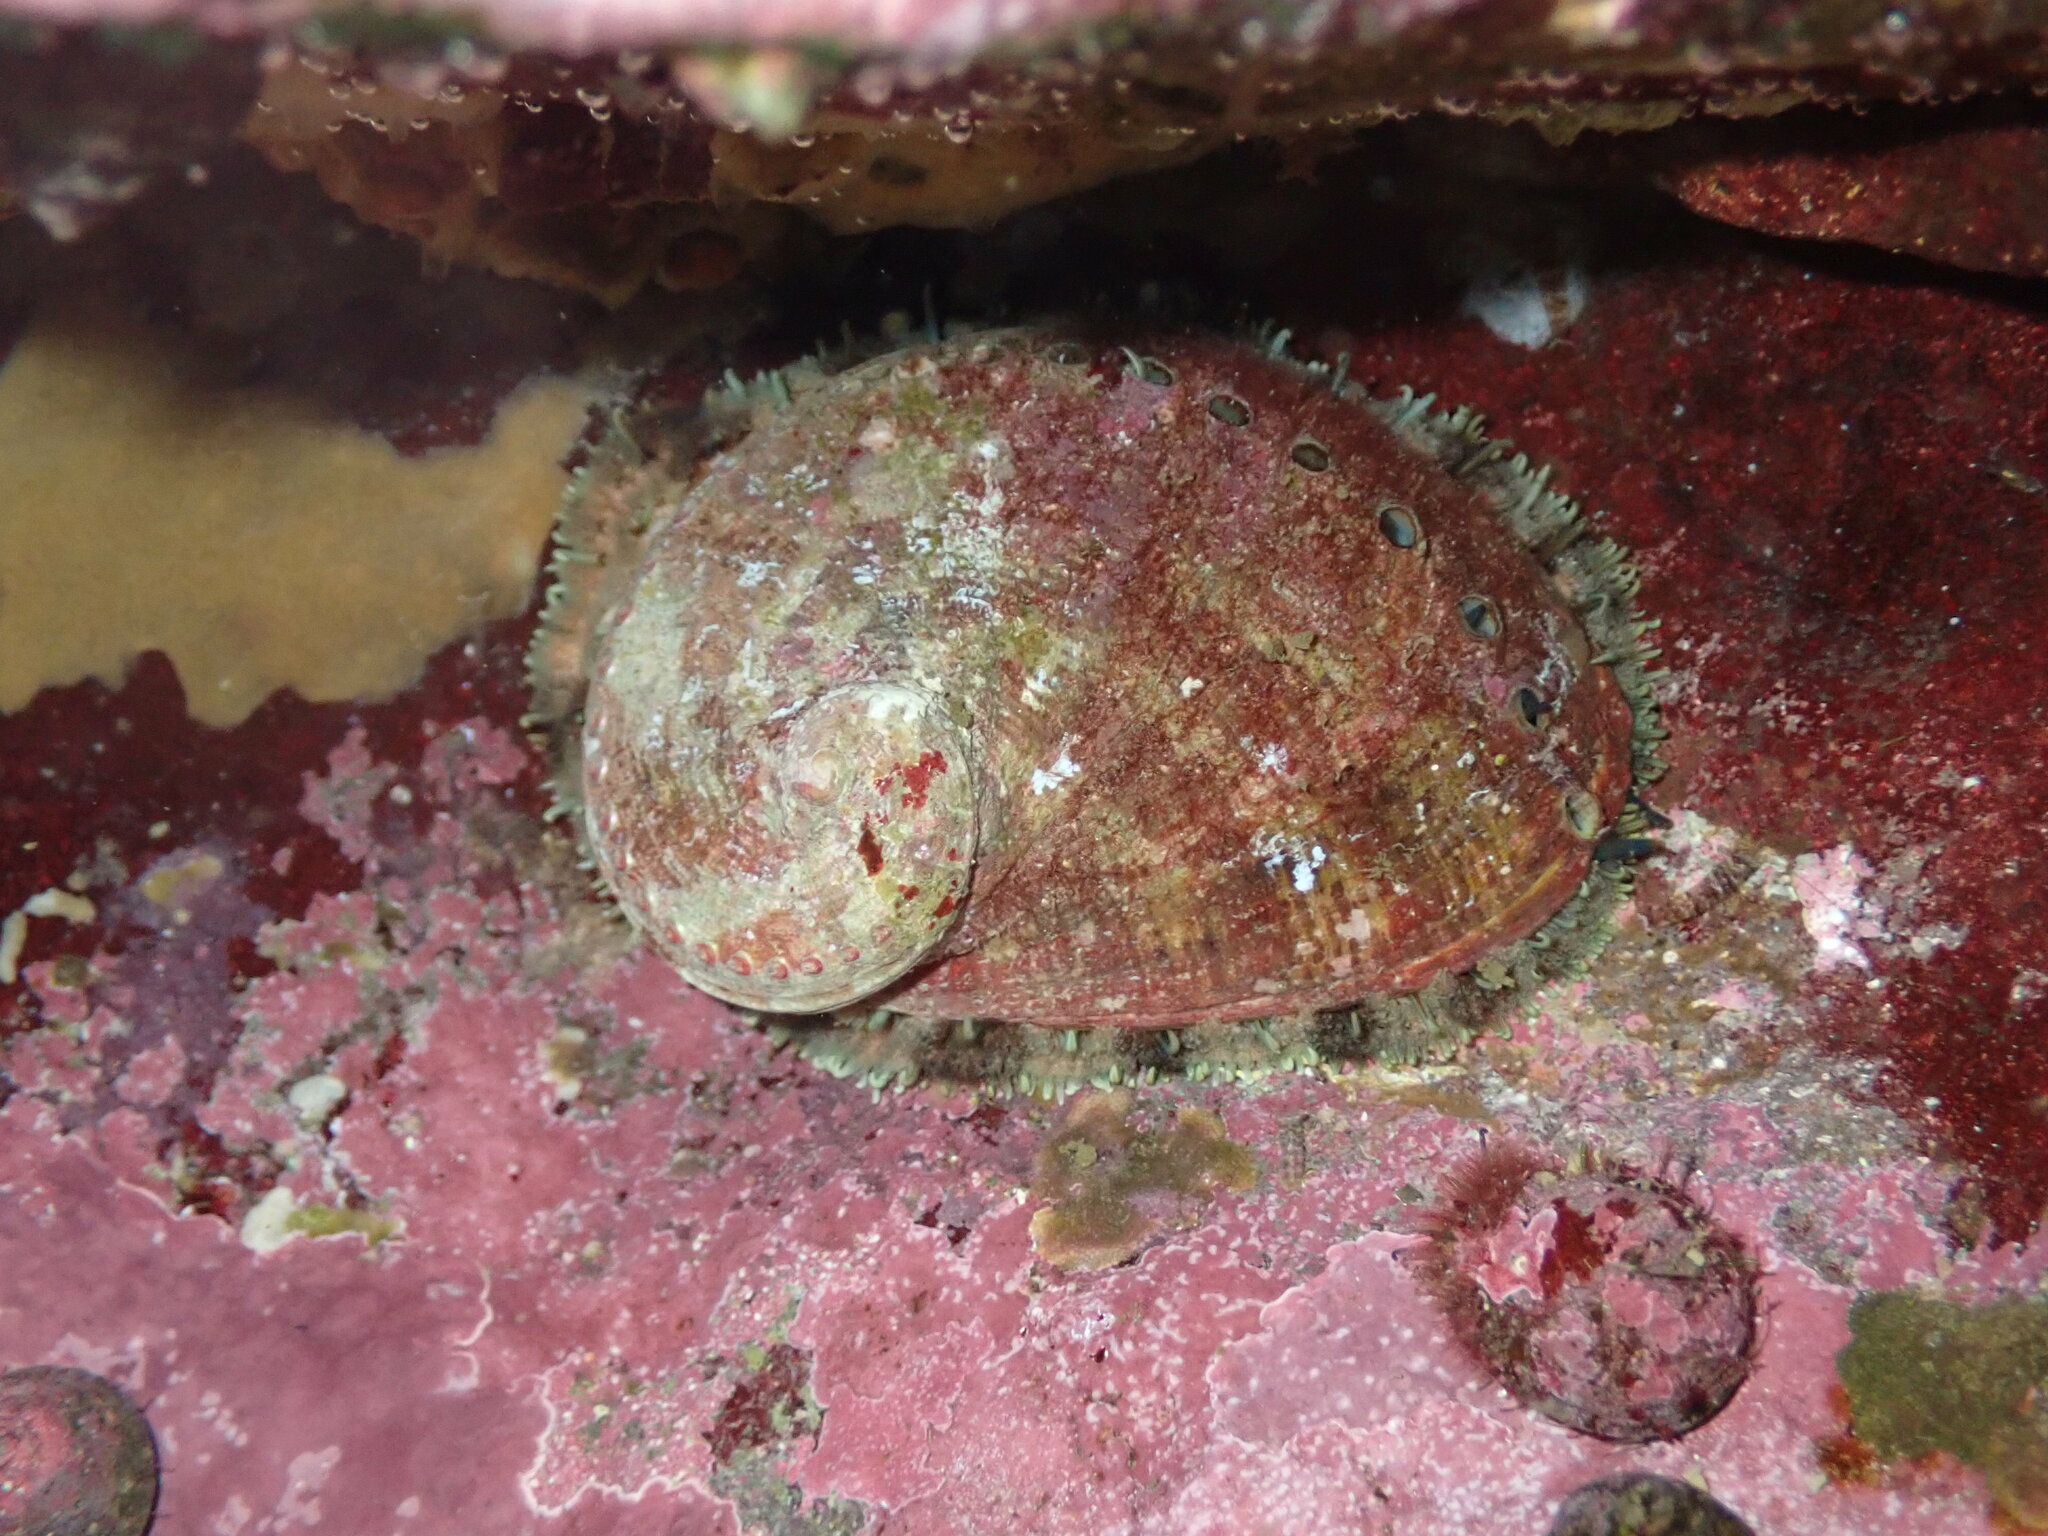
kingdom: Animalia
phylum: Mollusca
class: Gastropoda
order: Lepetellida
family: Haliotidae
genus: Haliotis
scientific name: Haliotis rubra
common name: Blacklip abalone
